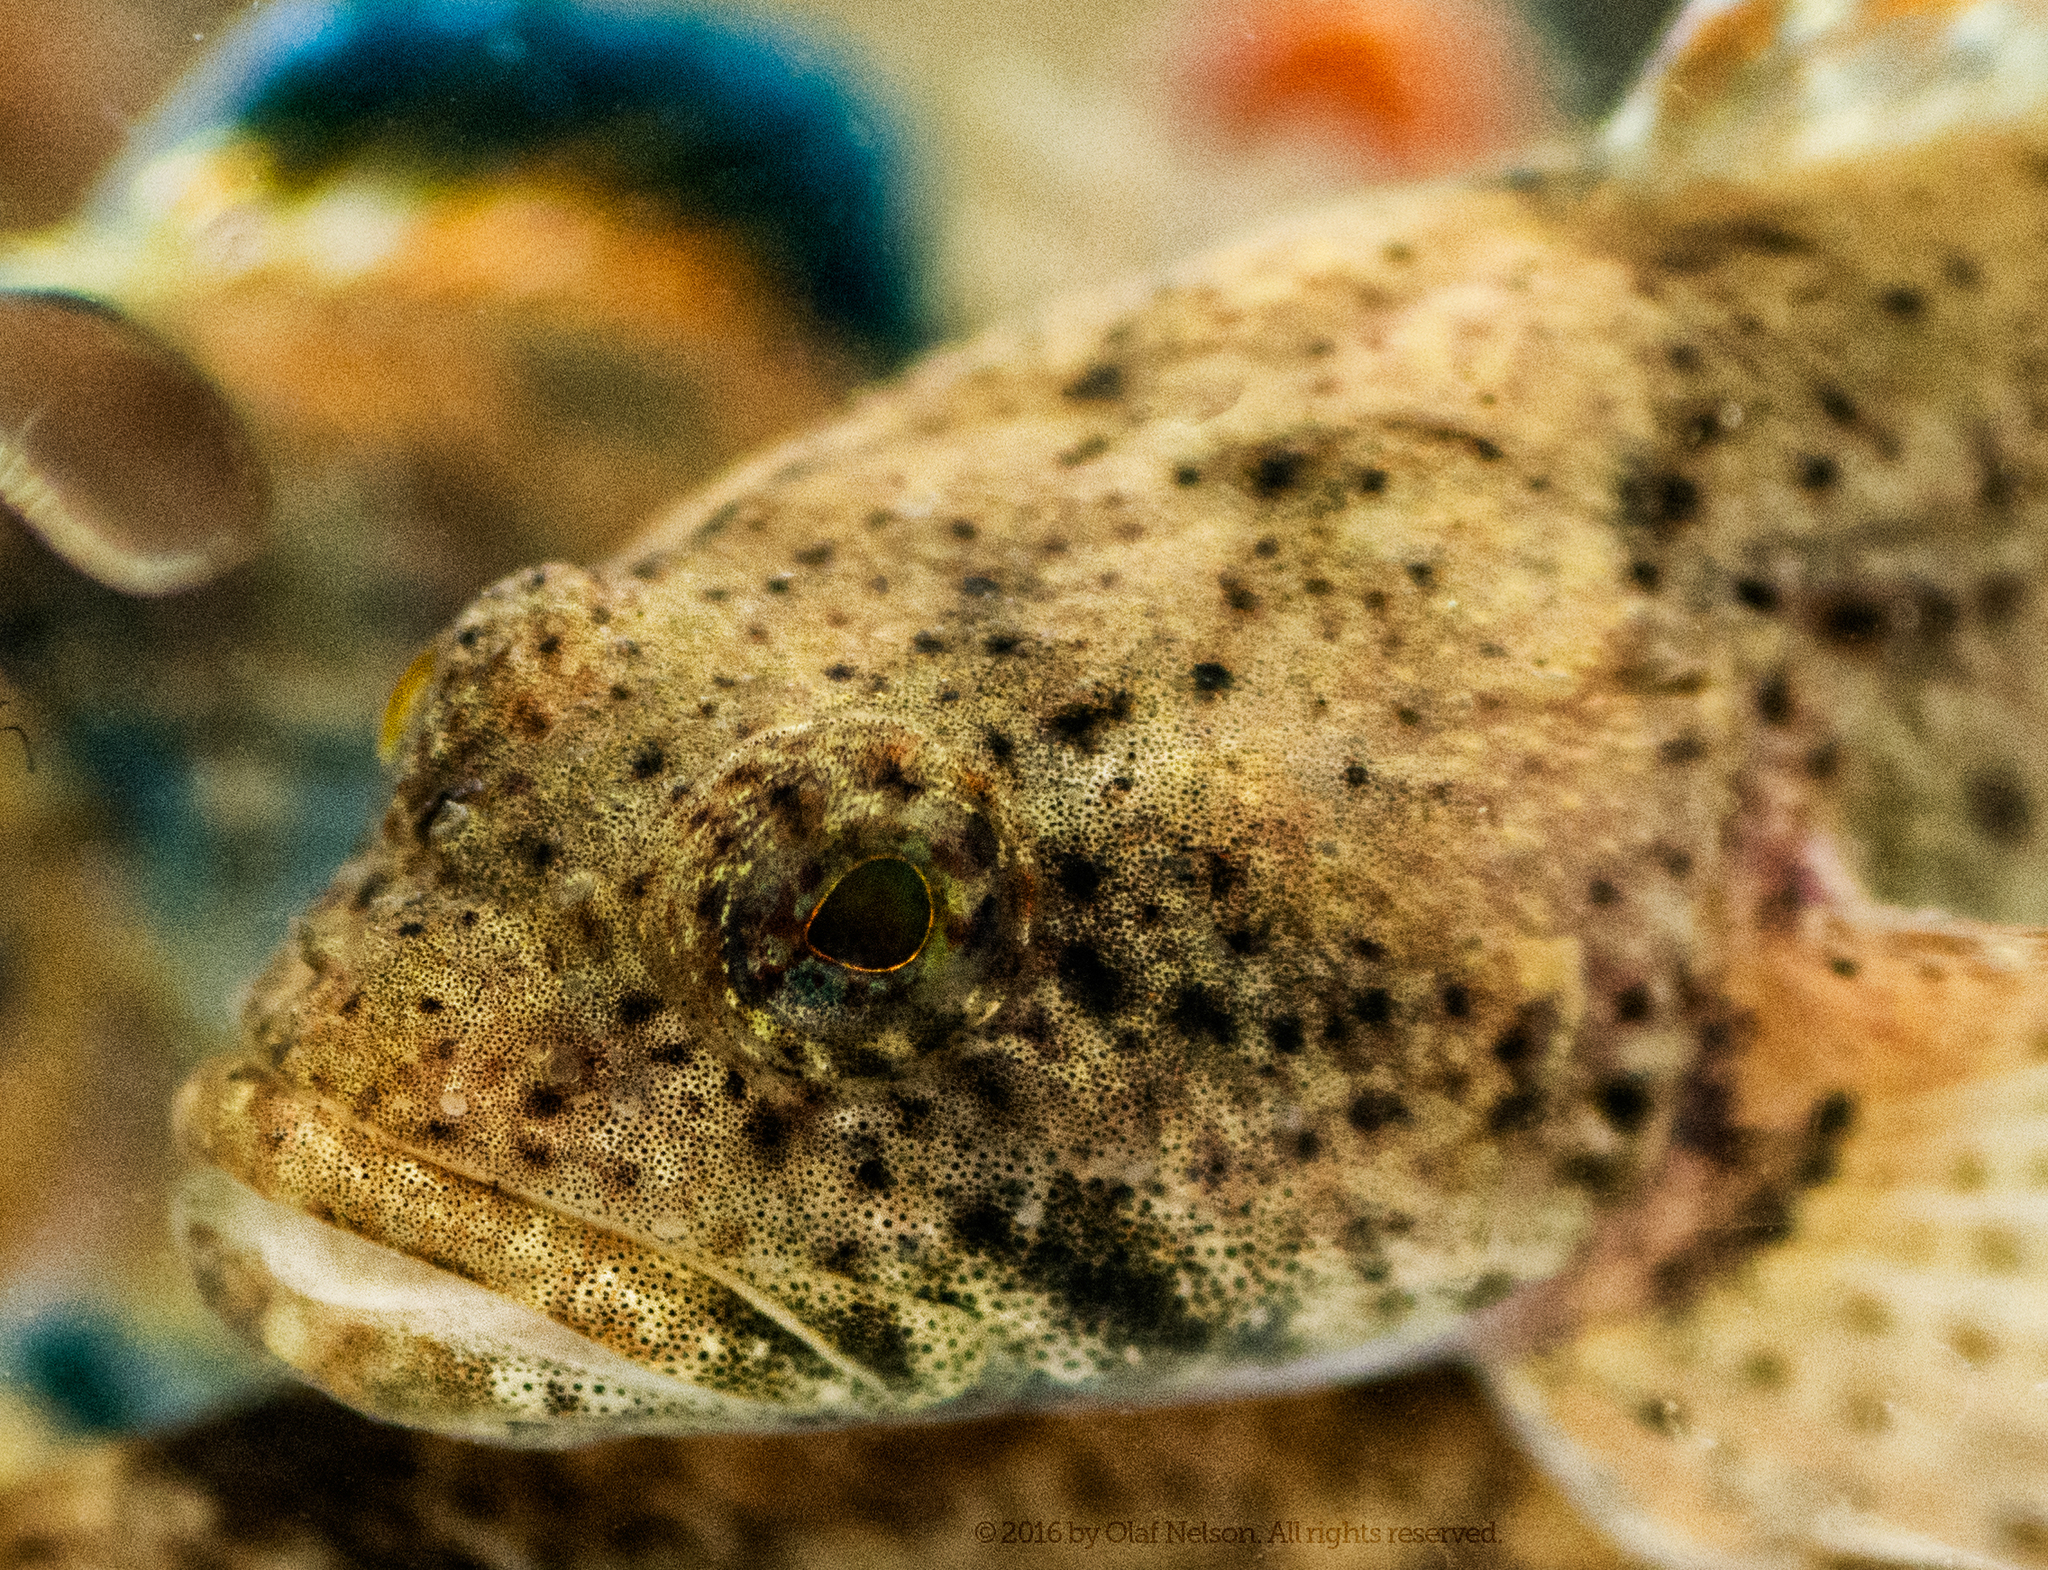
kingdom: Animalia
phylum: Chordata
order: Scorpaeniformes
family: Cottidae
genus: Cottus
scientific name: Cottus bairdii
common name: Mottled sculpin
